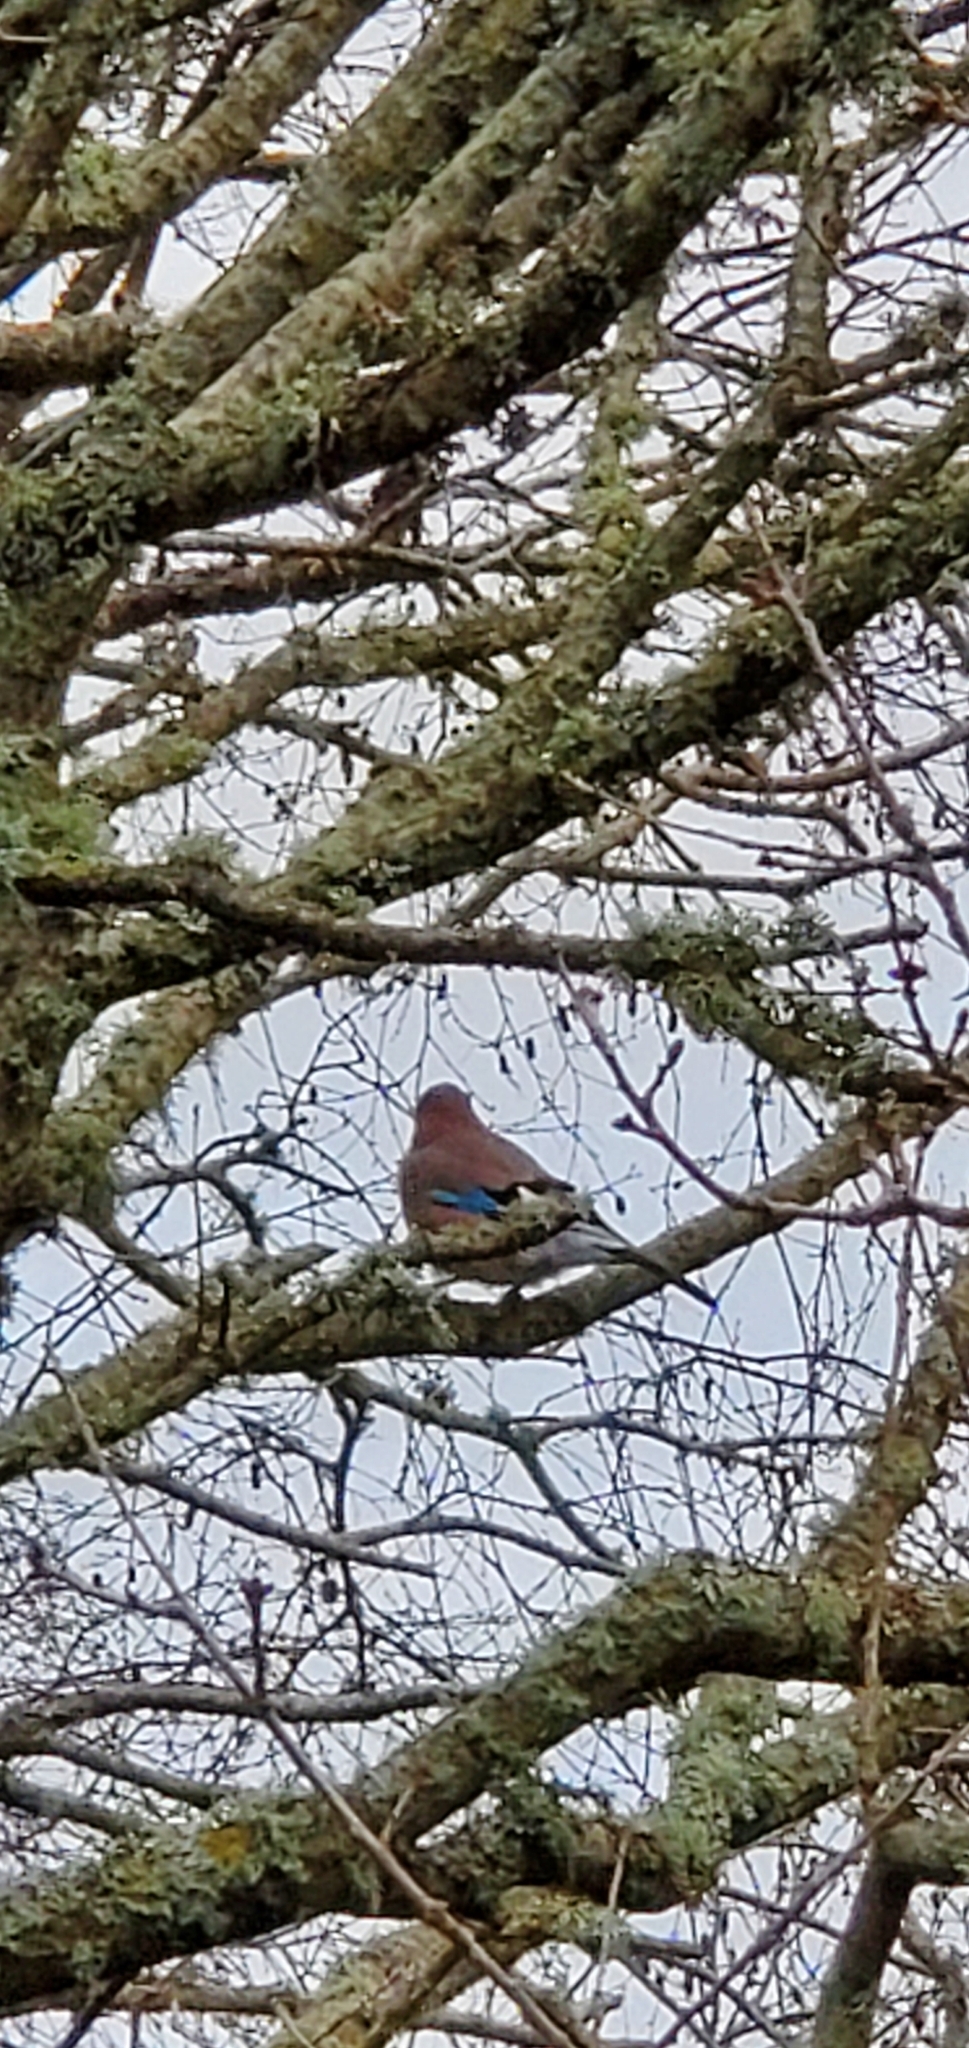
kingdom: Animalia
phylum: Chordata
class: Aves
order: Passeriformes
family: Corvidae
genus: Garrulus
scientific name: Garrulus glandarius
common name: Eurasian jay
